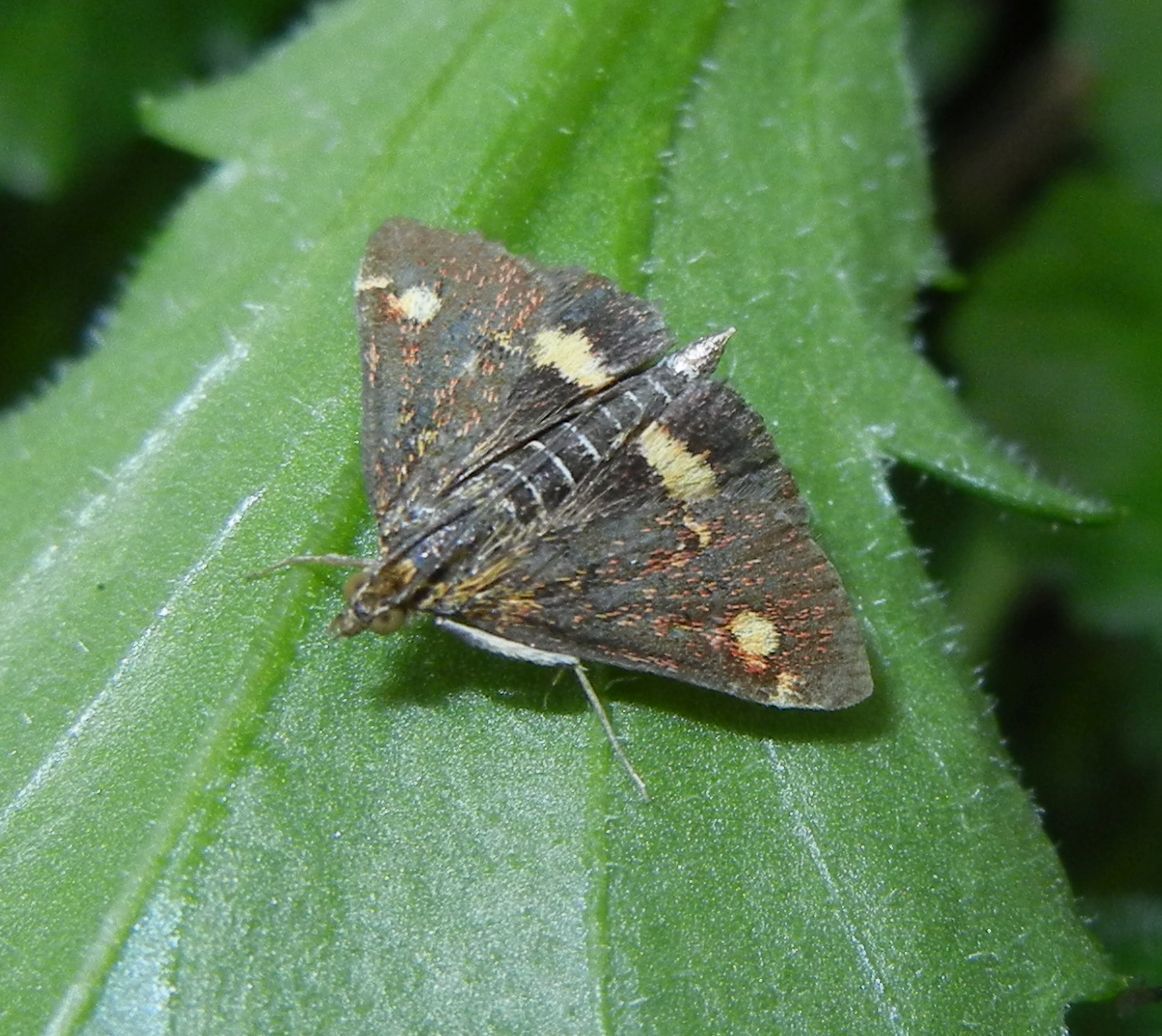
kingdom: Animalia
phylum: Arthropoda
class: Insecta
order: Lepidoptera
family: Crambidae
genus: Pyrausta
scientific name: Pyrausta aurata
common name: Small purple & gold
